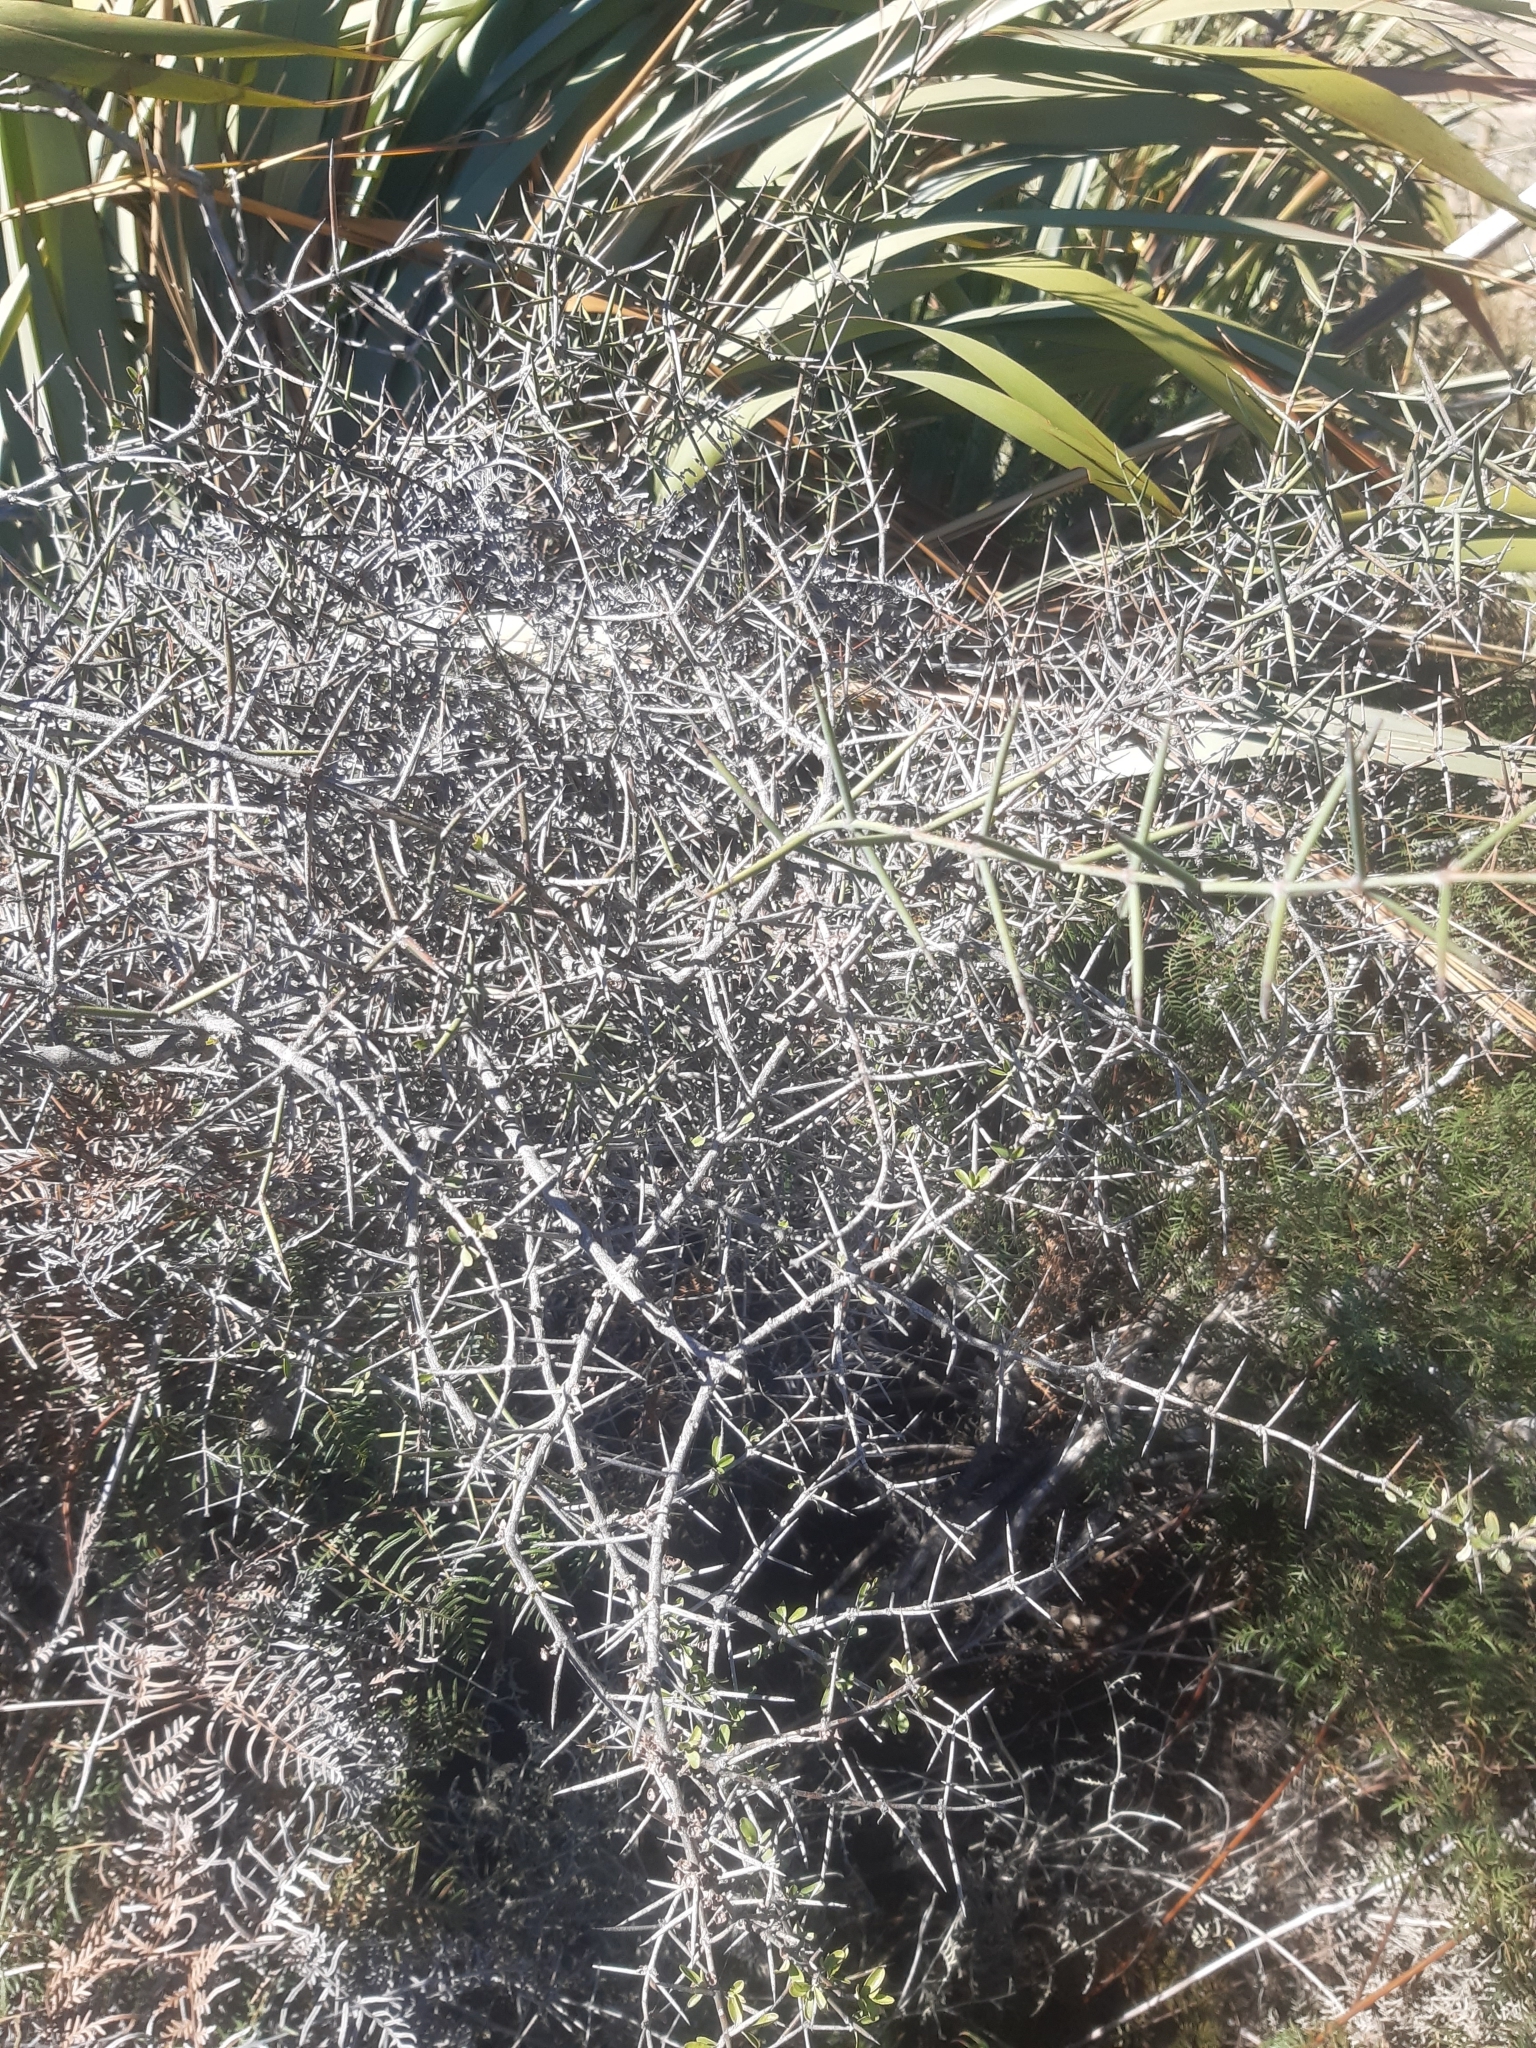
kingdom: Plantae
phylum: Tracheophyta
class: Magnoliopsida
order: Rosales
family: Rhamnaceae
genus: Discaria
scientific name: Discaria toumatou
